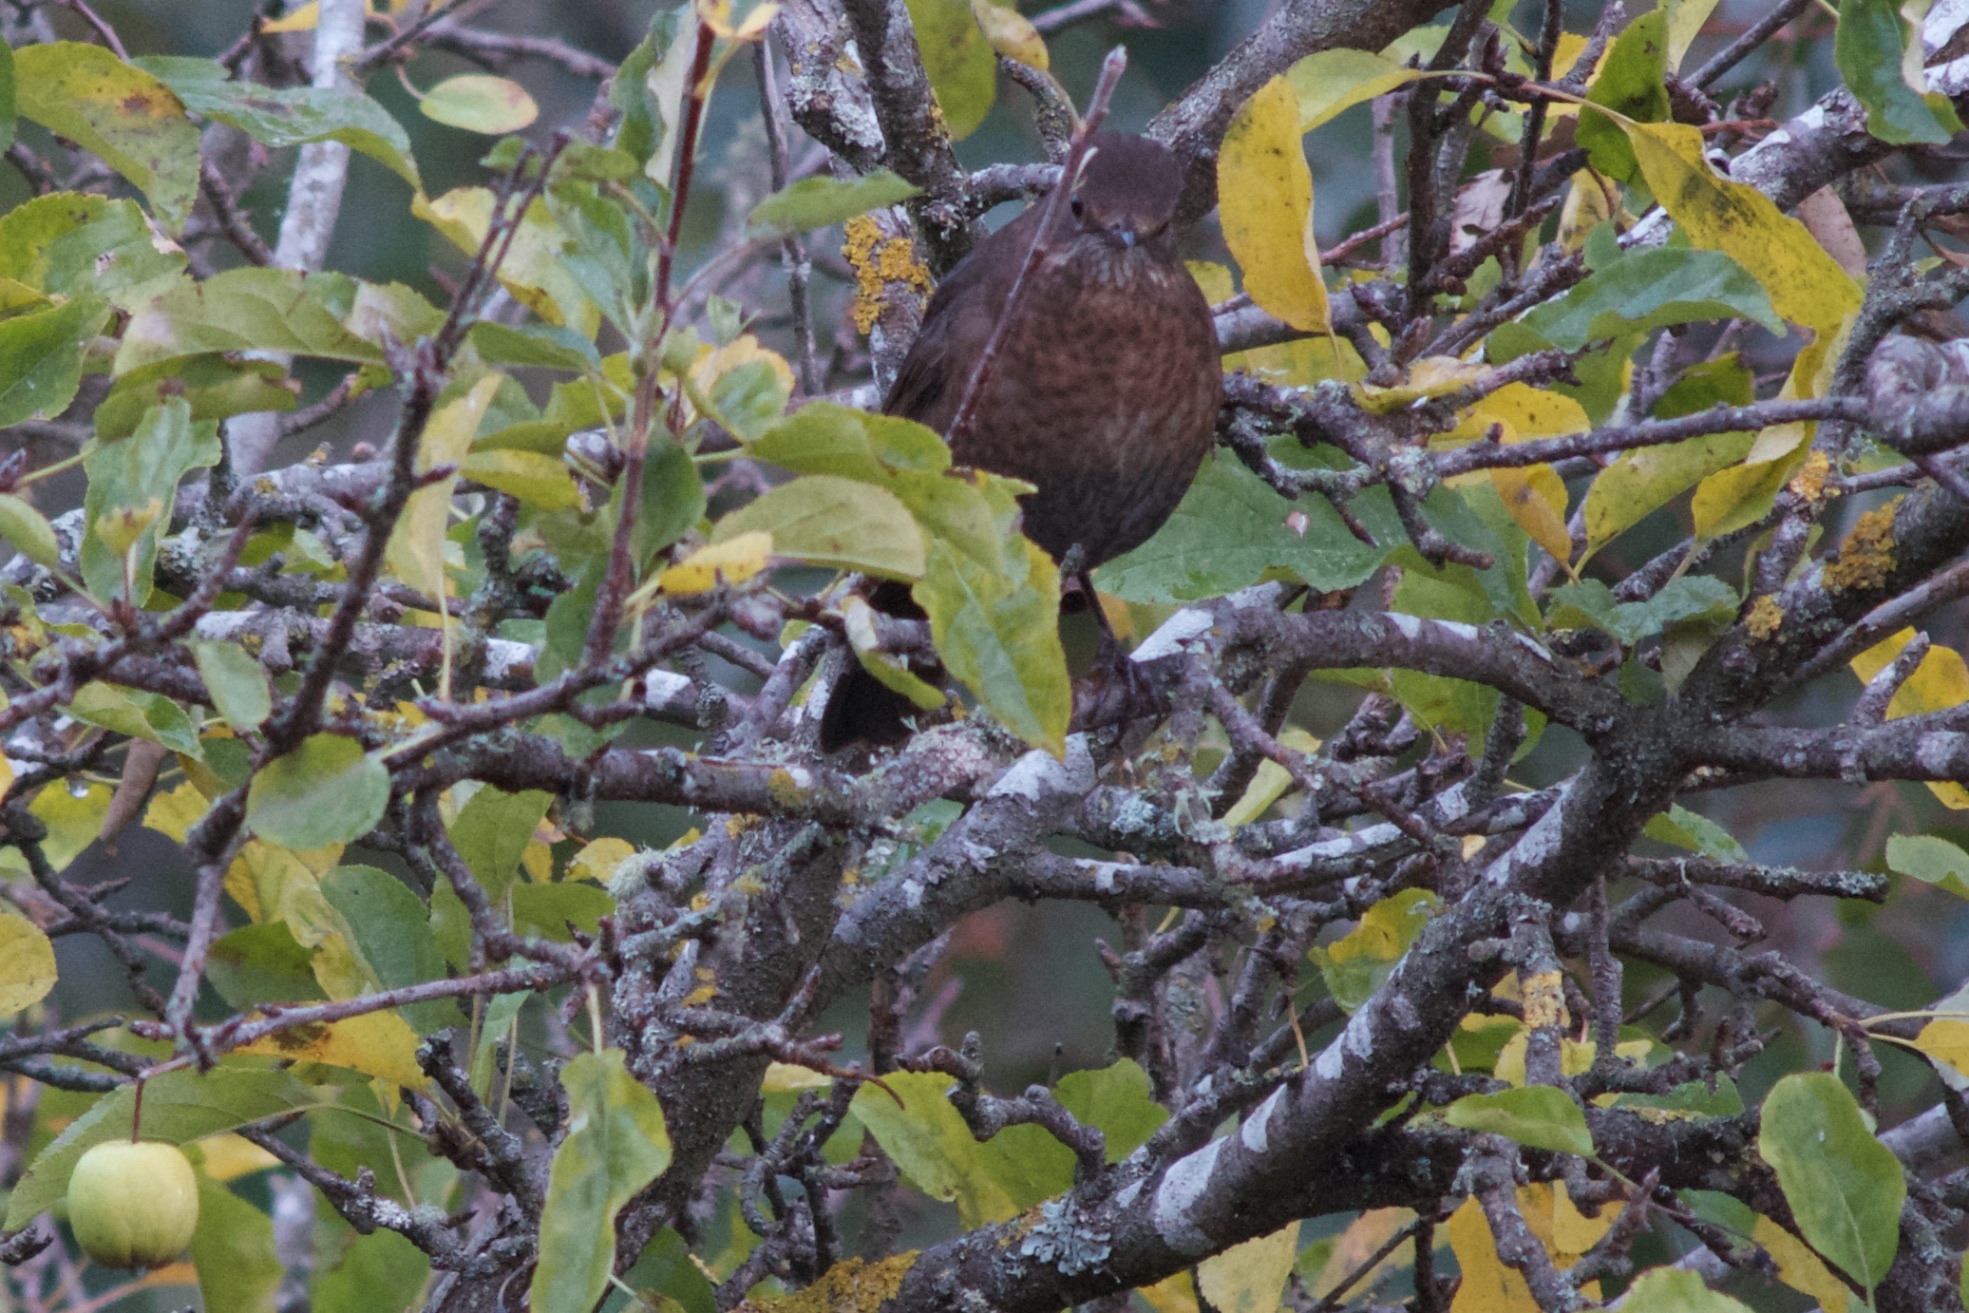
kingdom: Animalia
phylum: Chordata
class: Aves
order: Passeriformes
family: Turdidae
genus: Turdus
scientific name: Turdus merula
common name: Common blackbird
